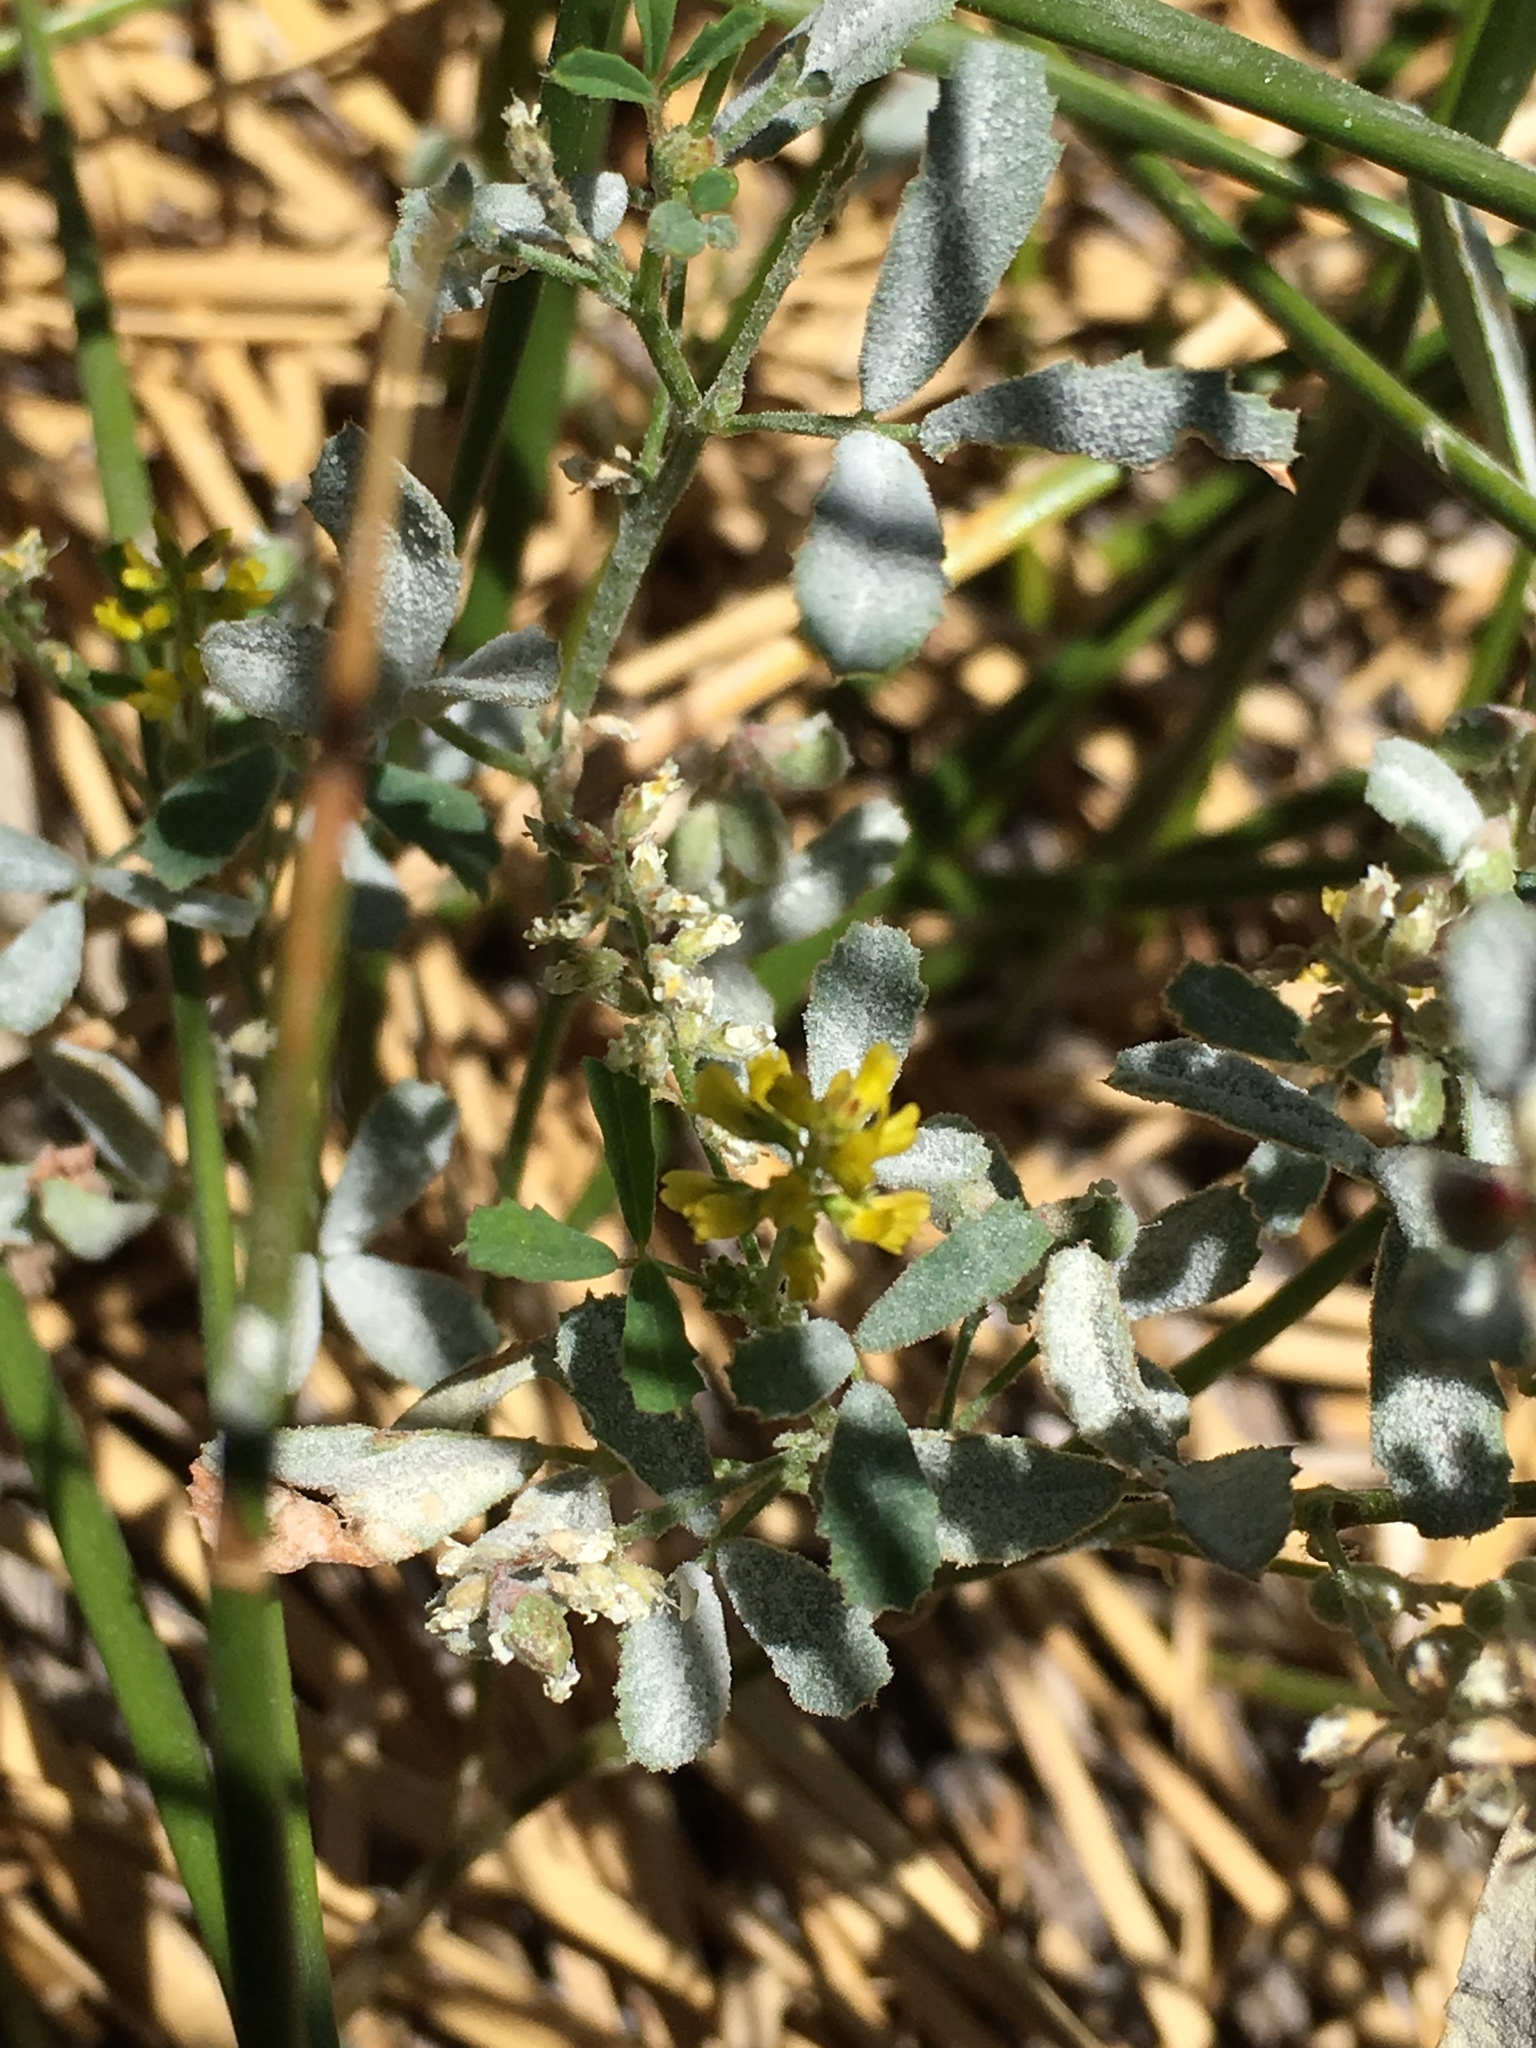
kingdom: Plantae
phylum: Tracheophyta
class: Magnoliopsida
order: Fabales
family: Fabaceae
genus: Melilotus
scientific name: Melilotus indicus
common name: Small melilot
